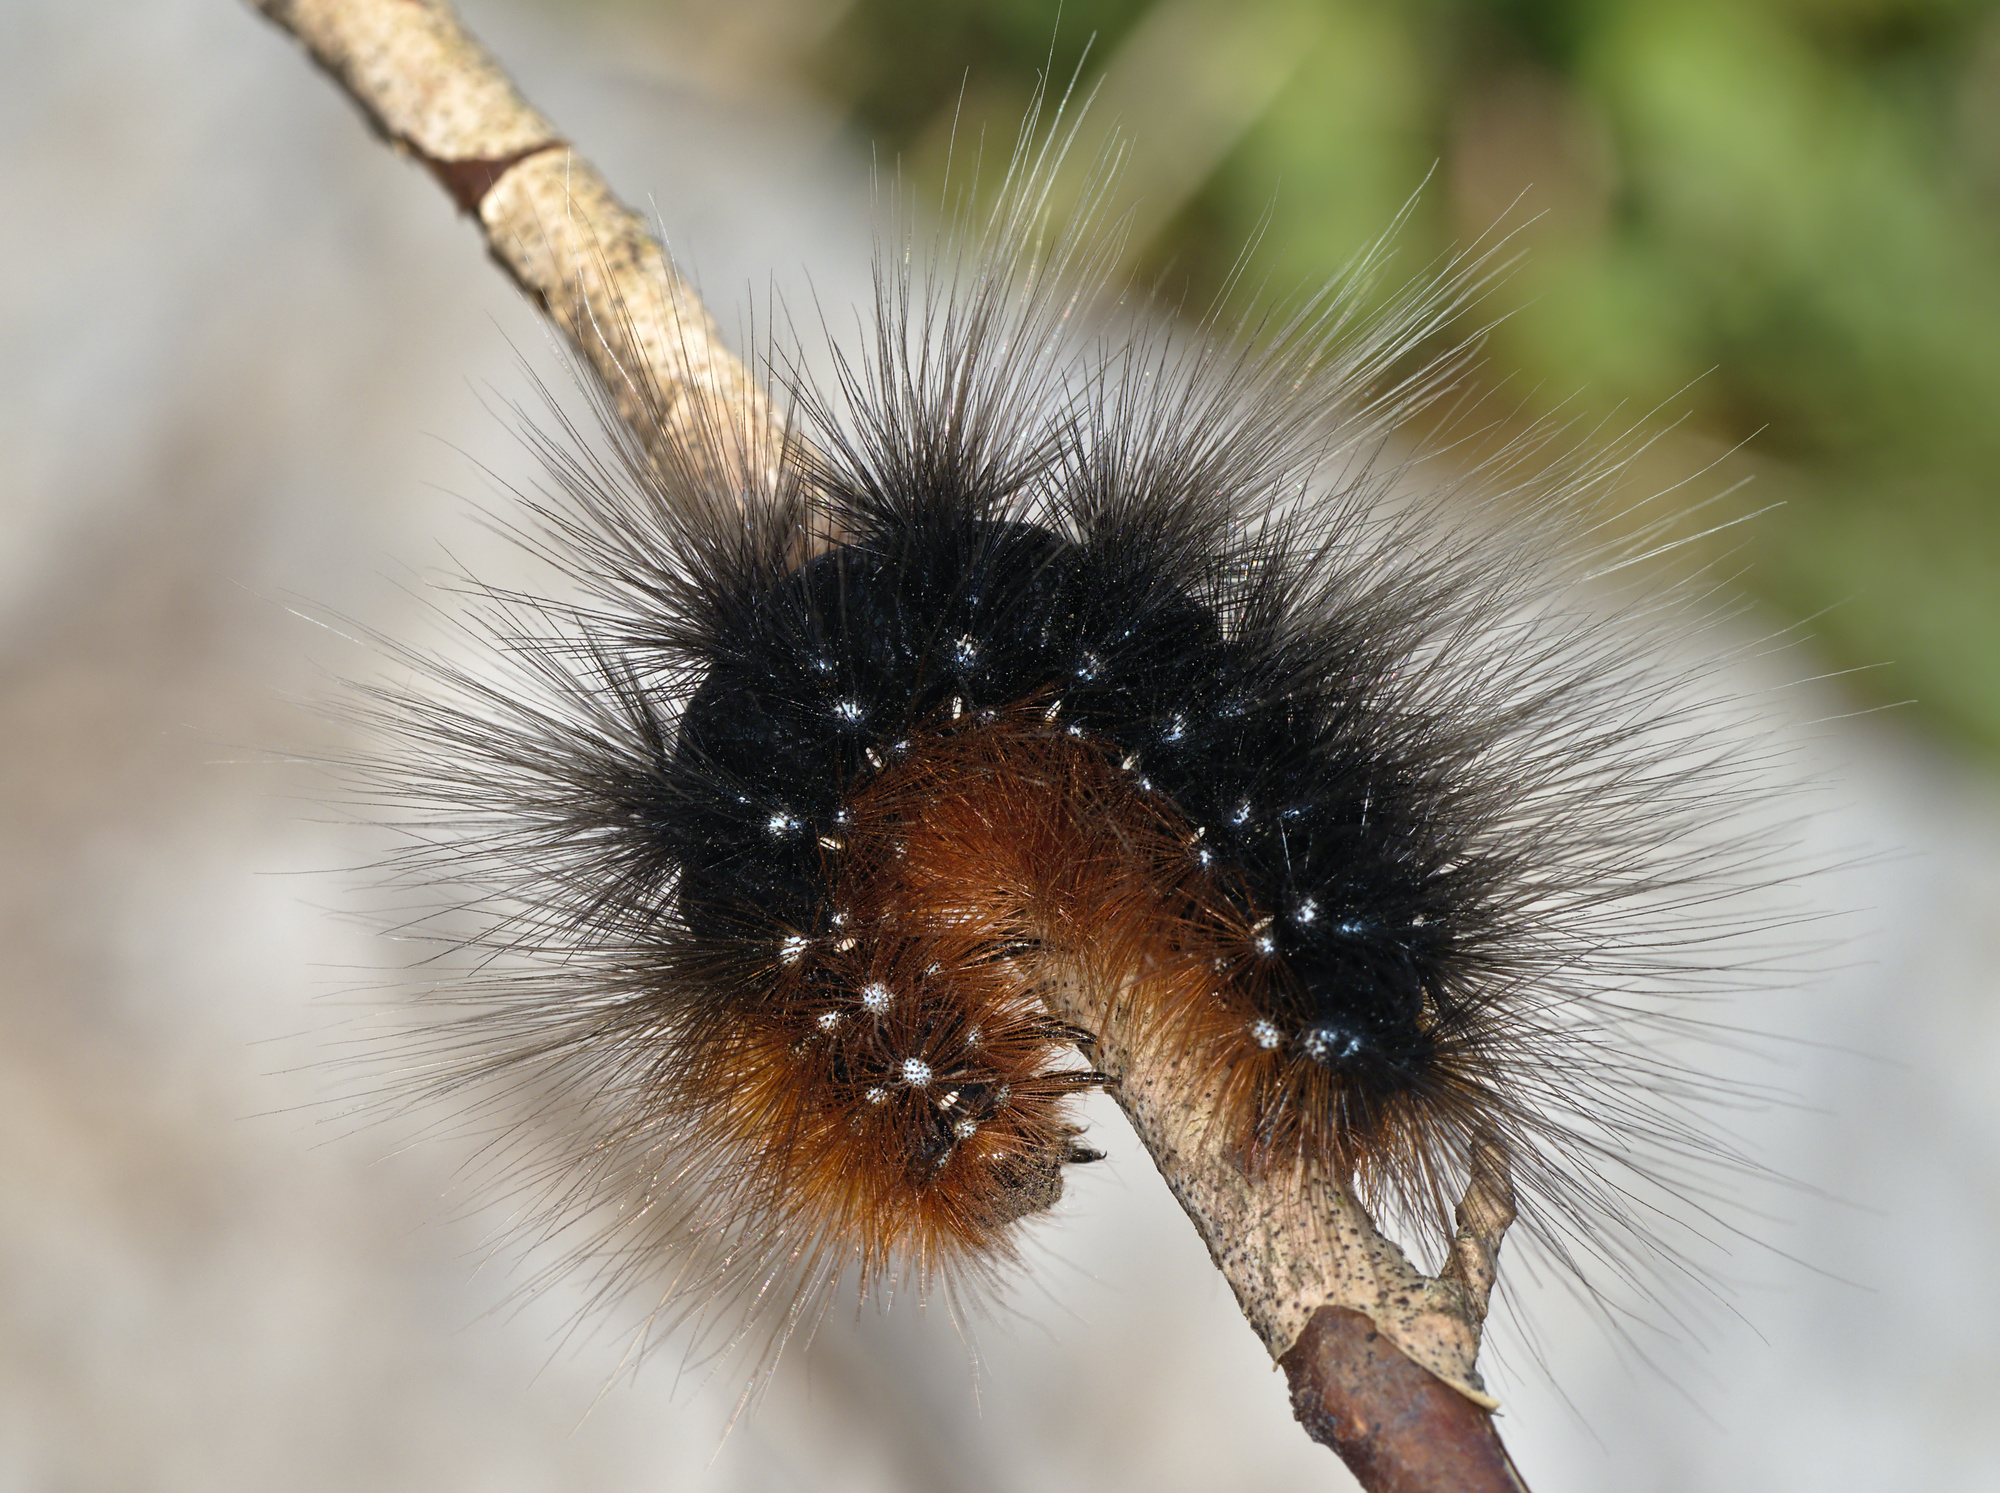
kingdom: Animalia
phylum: Arthropoda
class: Insecta
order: Lepidoptera
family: Erebidae
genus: Arctia
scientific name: Arctia caja
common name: Garden tiger
